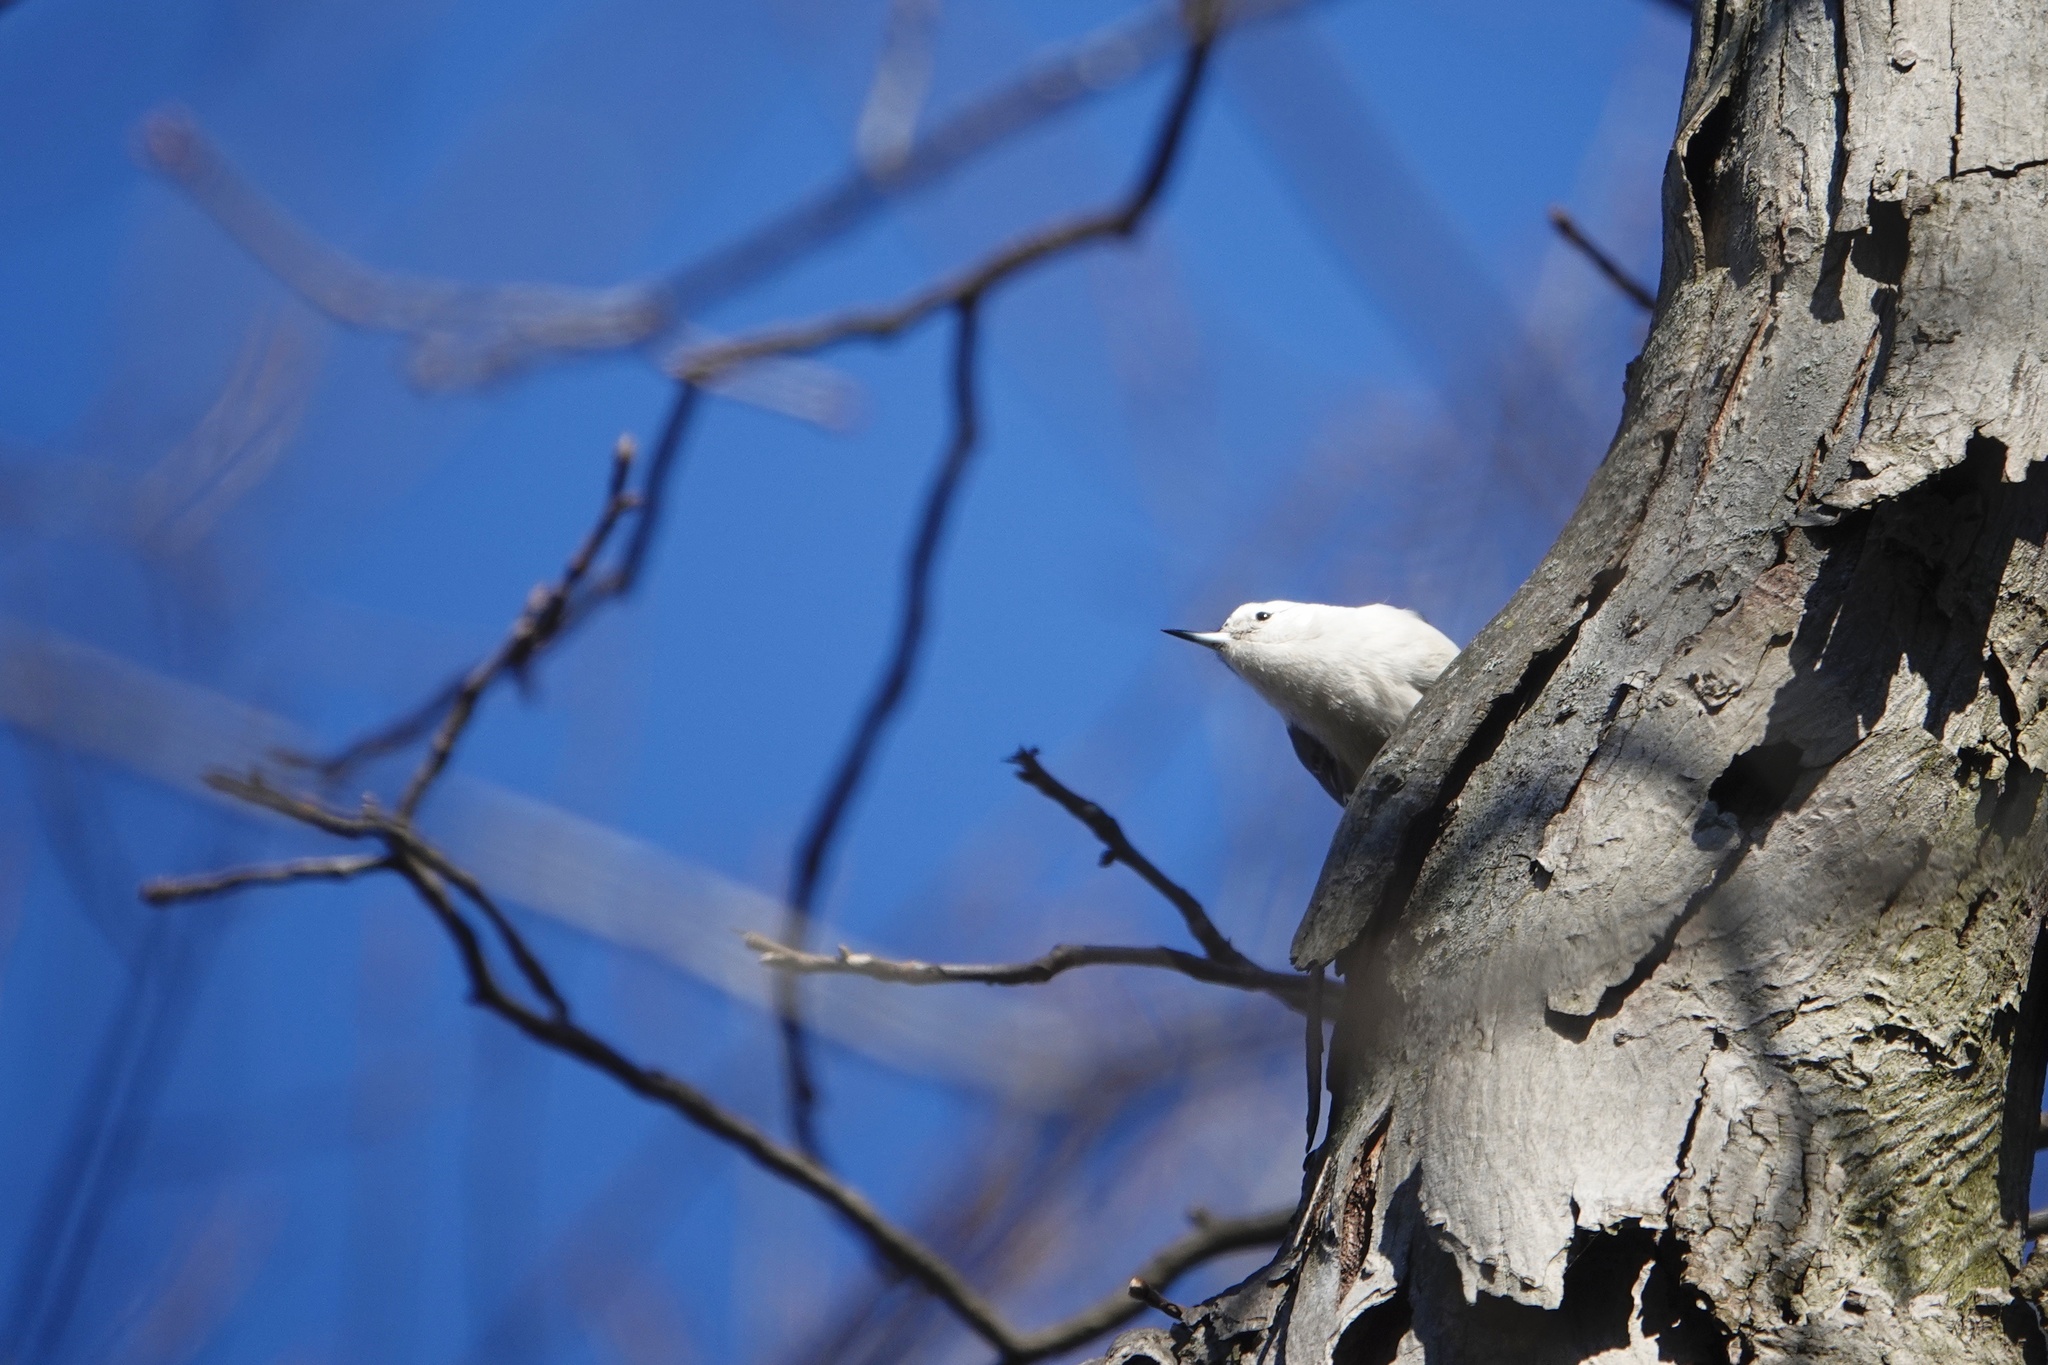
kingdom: Animalia
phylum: Chordata
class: Aves
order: Passeriformes
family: Sittidae
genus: Sitta
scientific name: Sitta carolinensis
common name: White-breasted nuthatch
